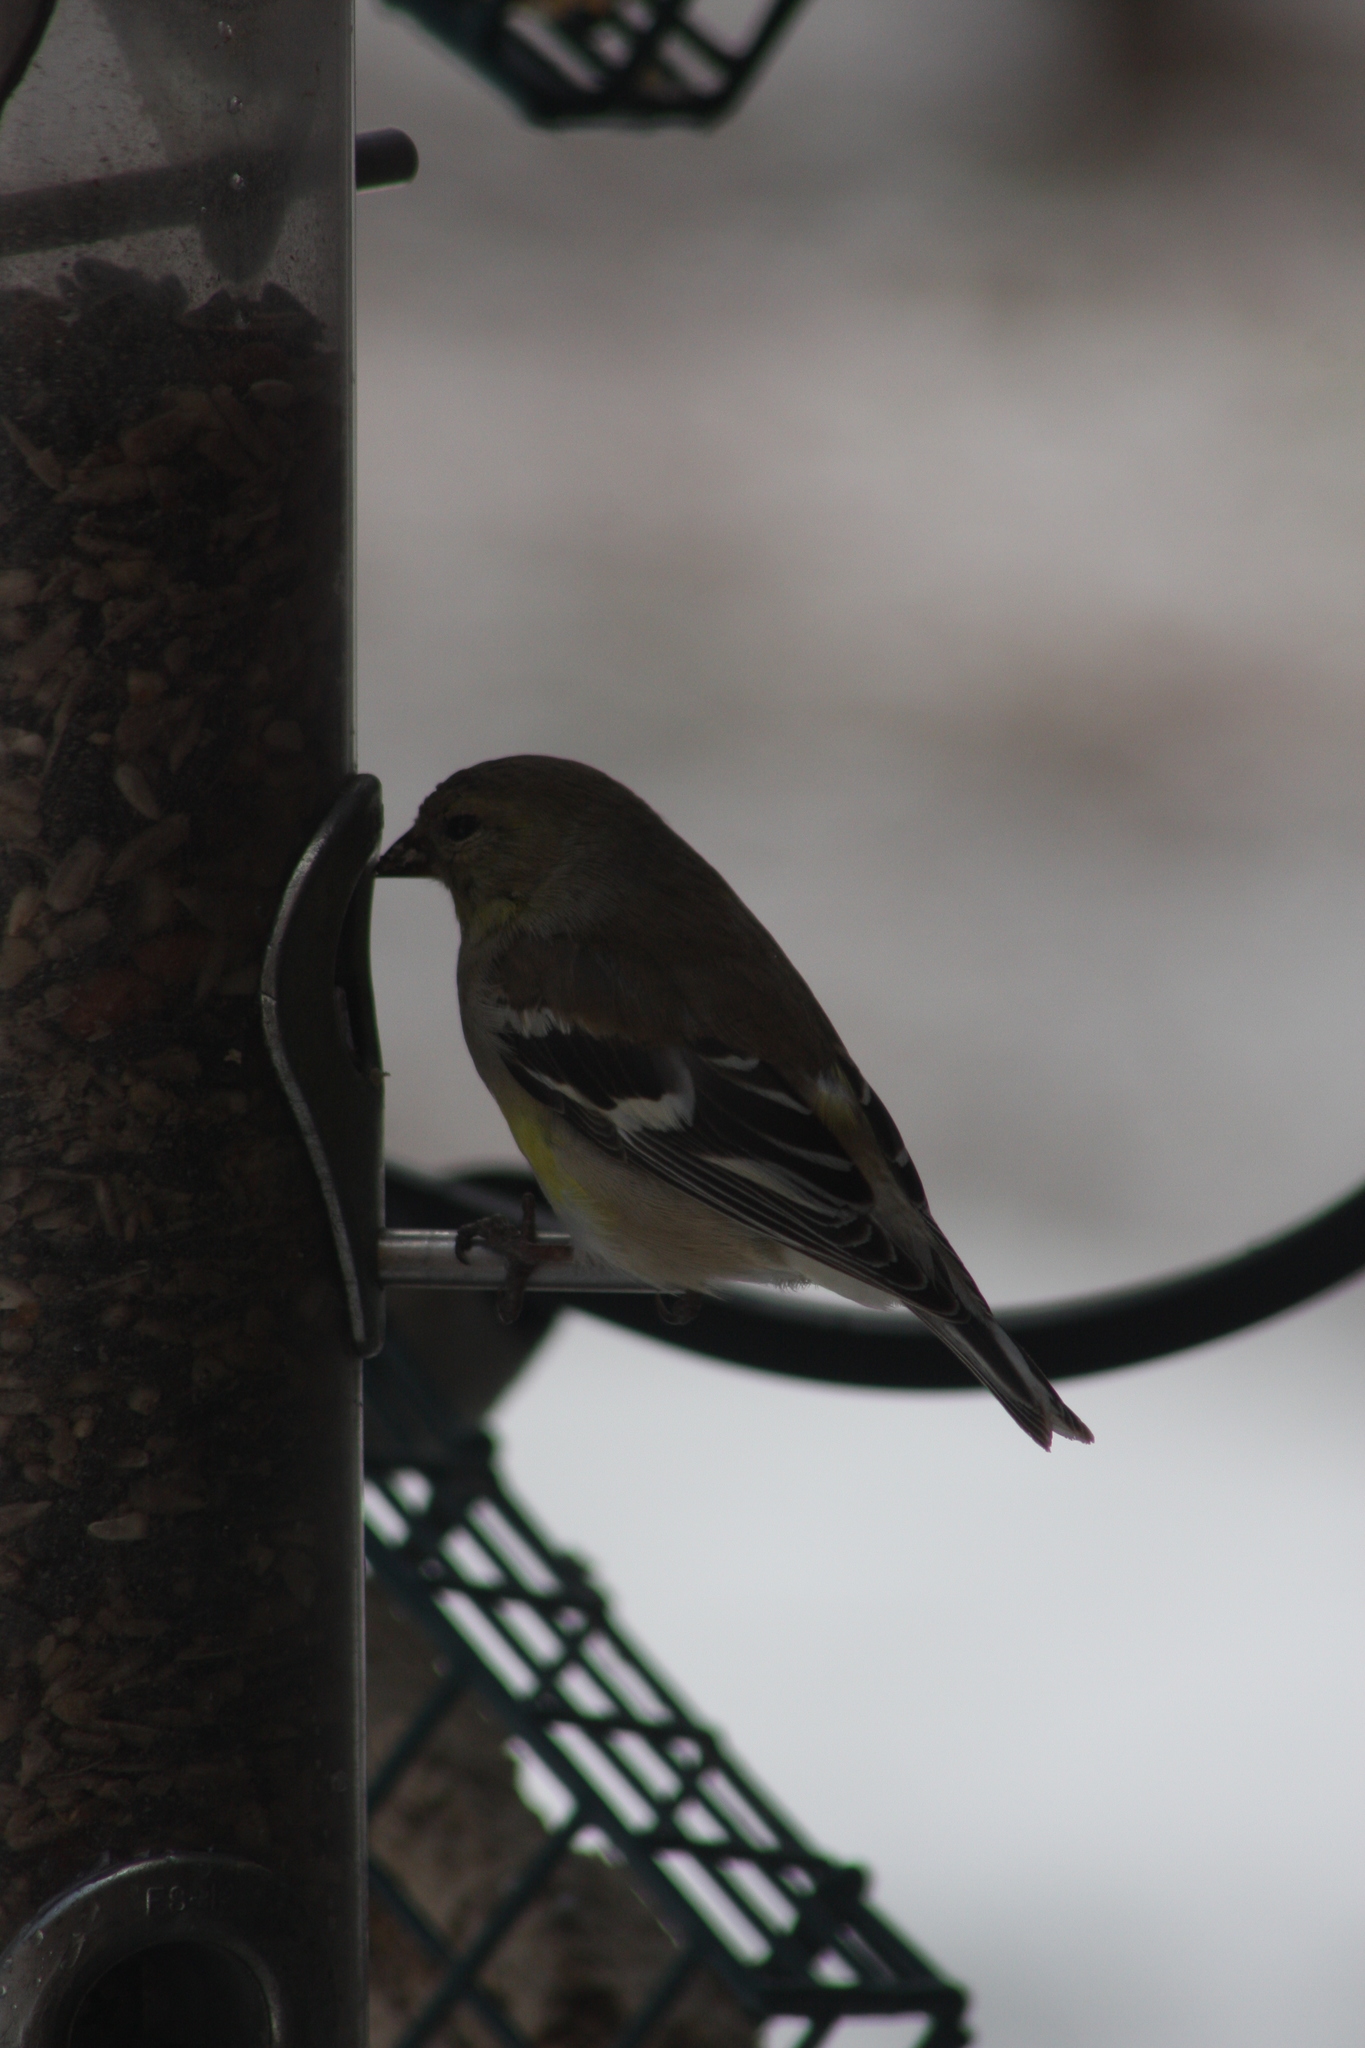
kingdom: Animalia
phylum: Chordata
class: Aves
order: Passeriformes
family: Fringillidae
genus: Spinus
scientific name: Spinus tristis
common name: American goldfinch
